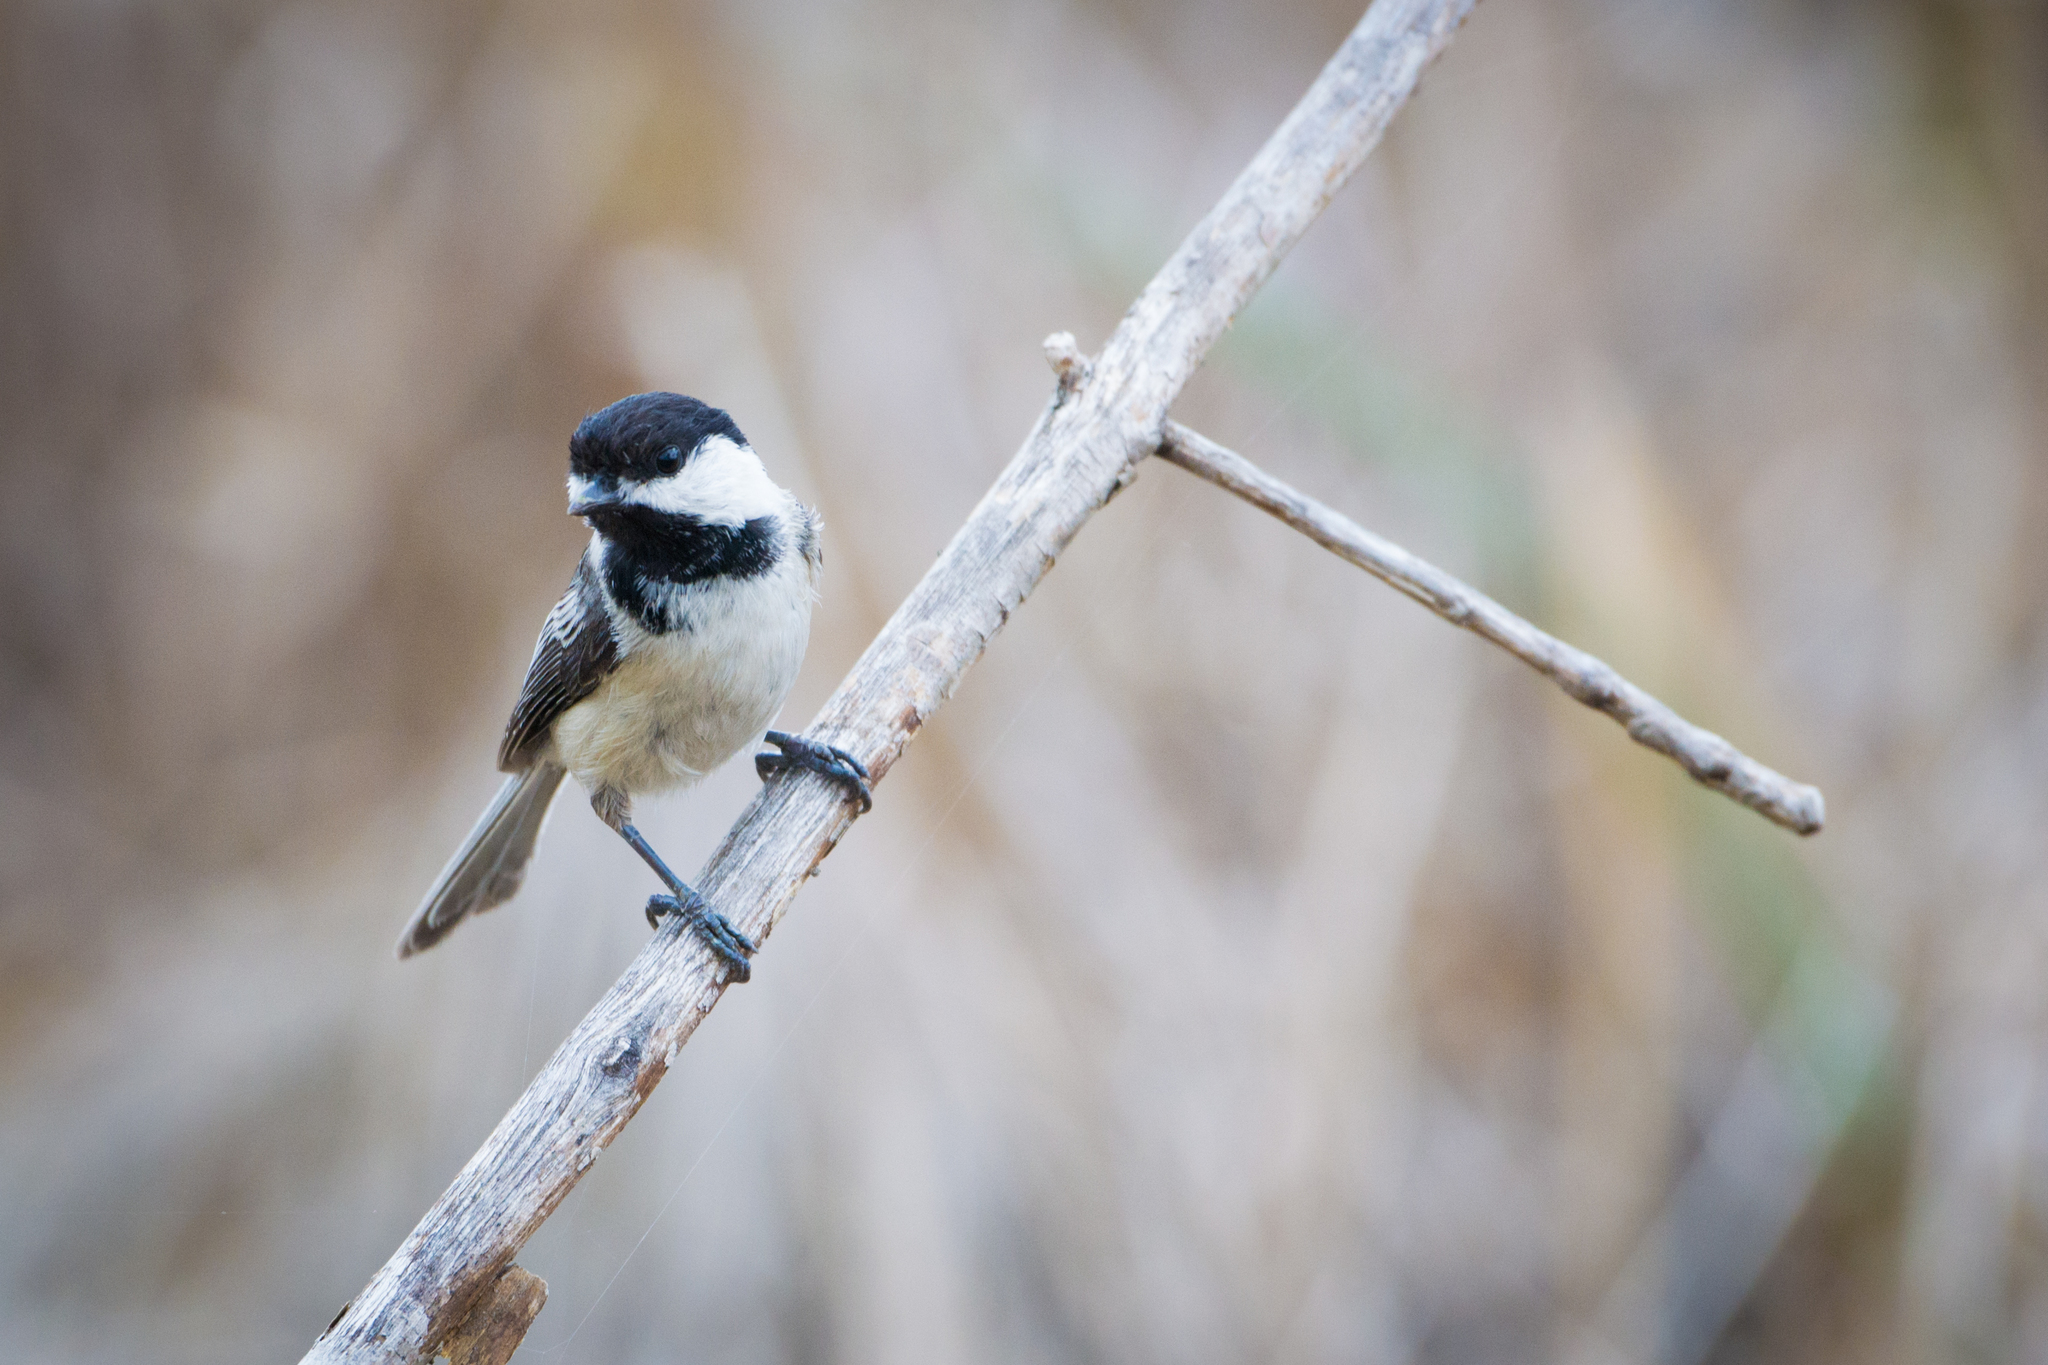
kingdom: Animalia
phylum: Chordata
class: Aves
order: Passeriformes
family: Paridae
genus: Poecile
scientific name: Poecile atricapillus
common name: Black-capped chickadee
